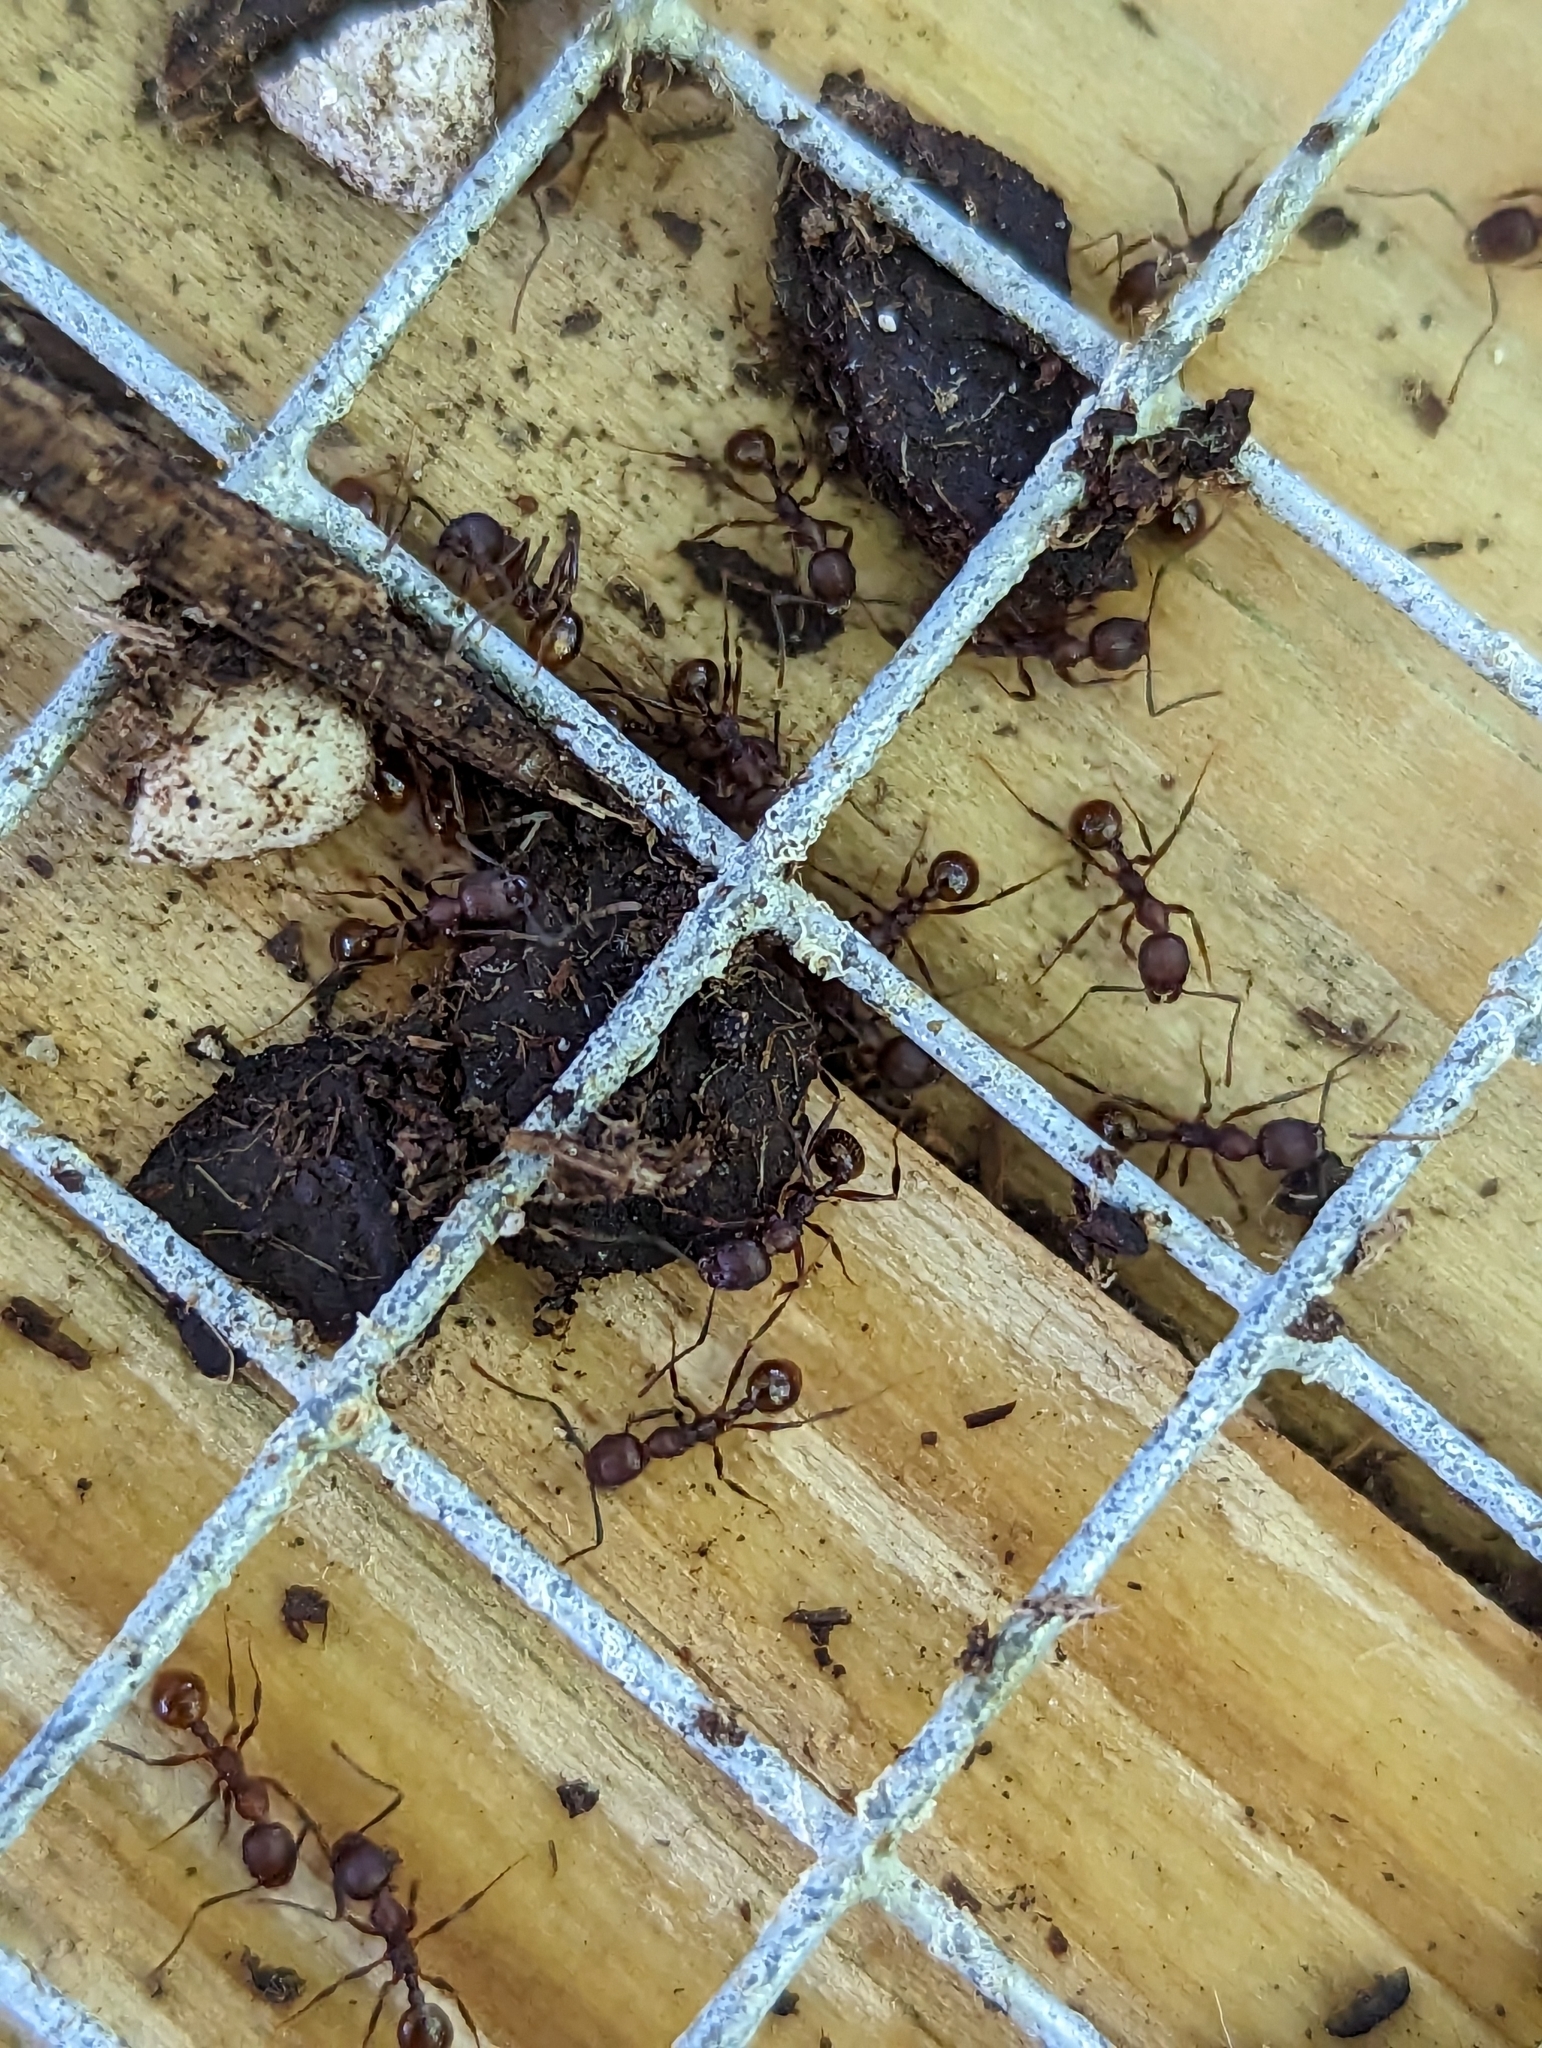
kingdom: Animalia
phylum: Arthropoda
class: Insecta
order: Hymenoptera
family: Formicidae
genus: Aphaenogaster
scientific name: Aphaenogaster fulva
